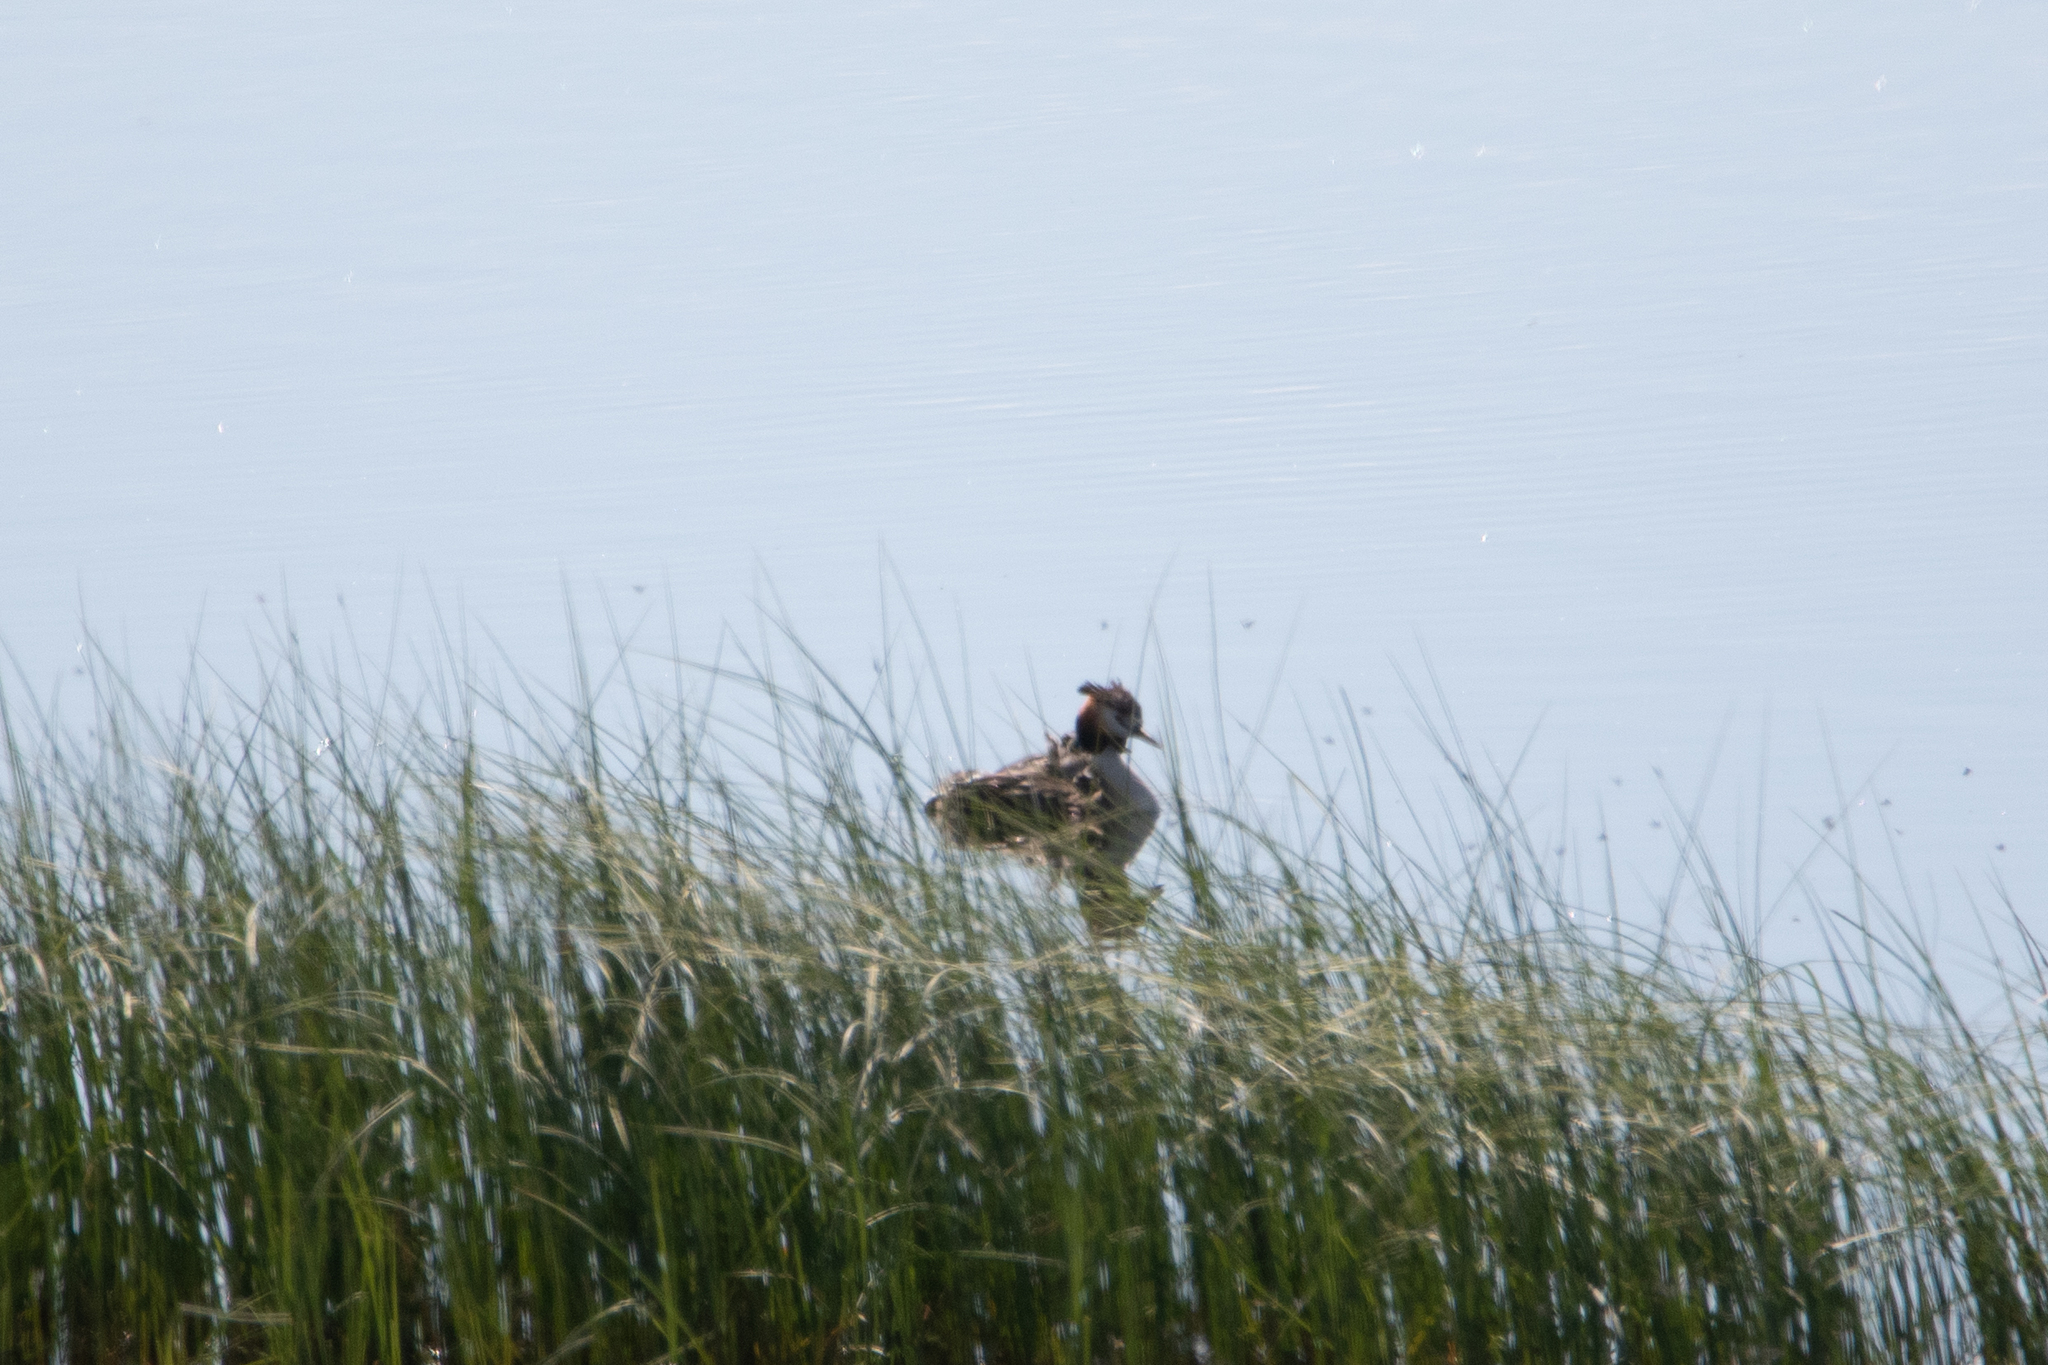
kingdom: Animalia
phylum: Chordata
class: Aves
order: Podicipediformes
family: Podicipedidae
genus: Podiceps
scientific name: Podiceps cristatus
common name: Great crested grebe
